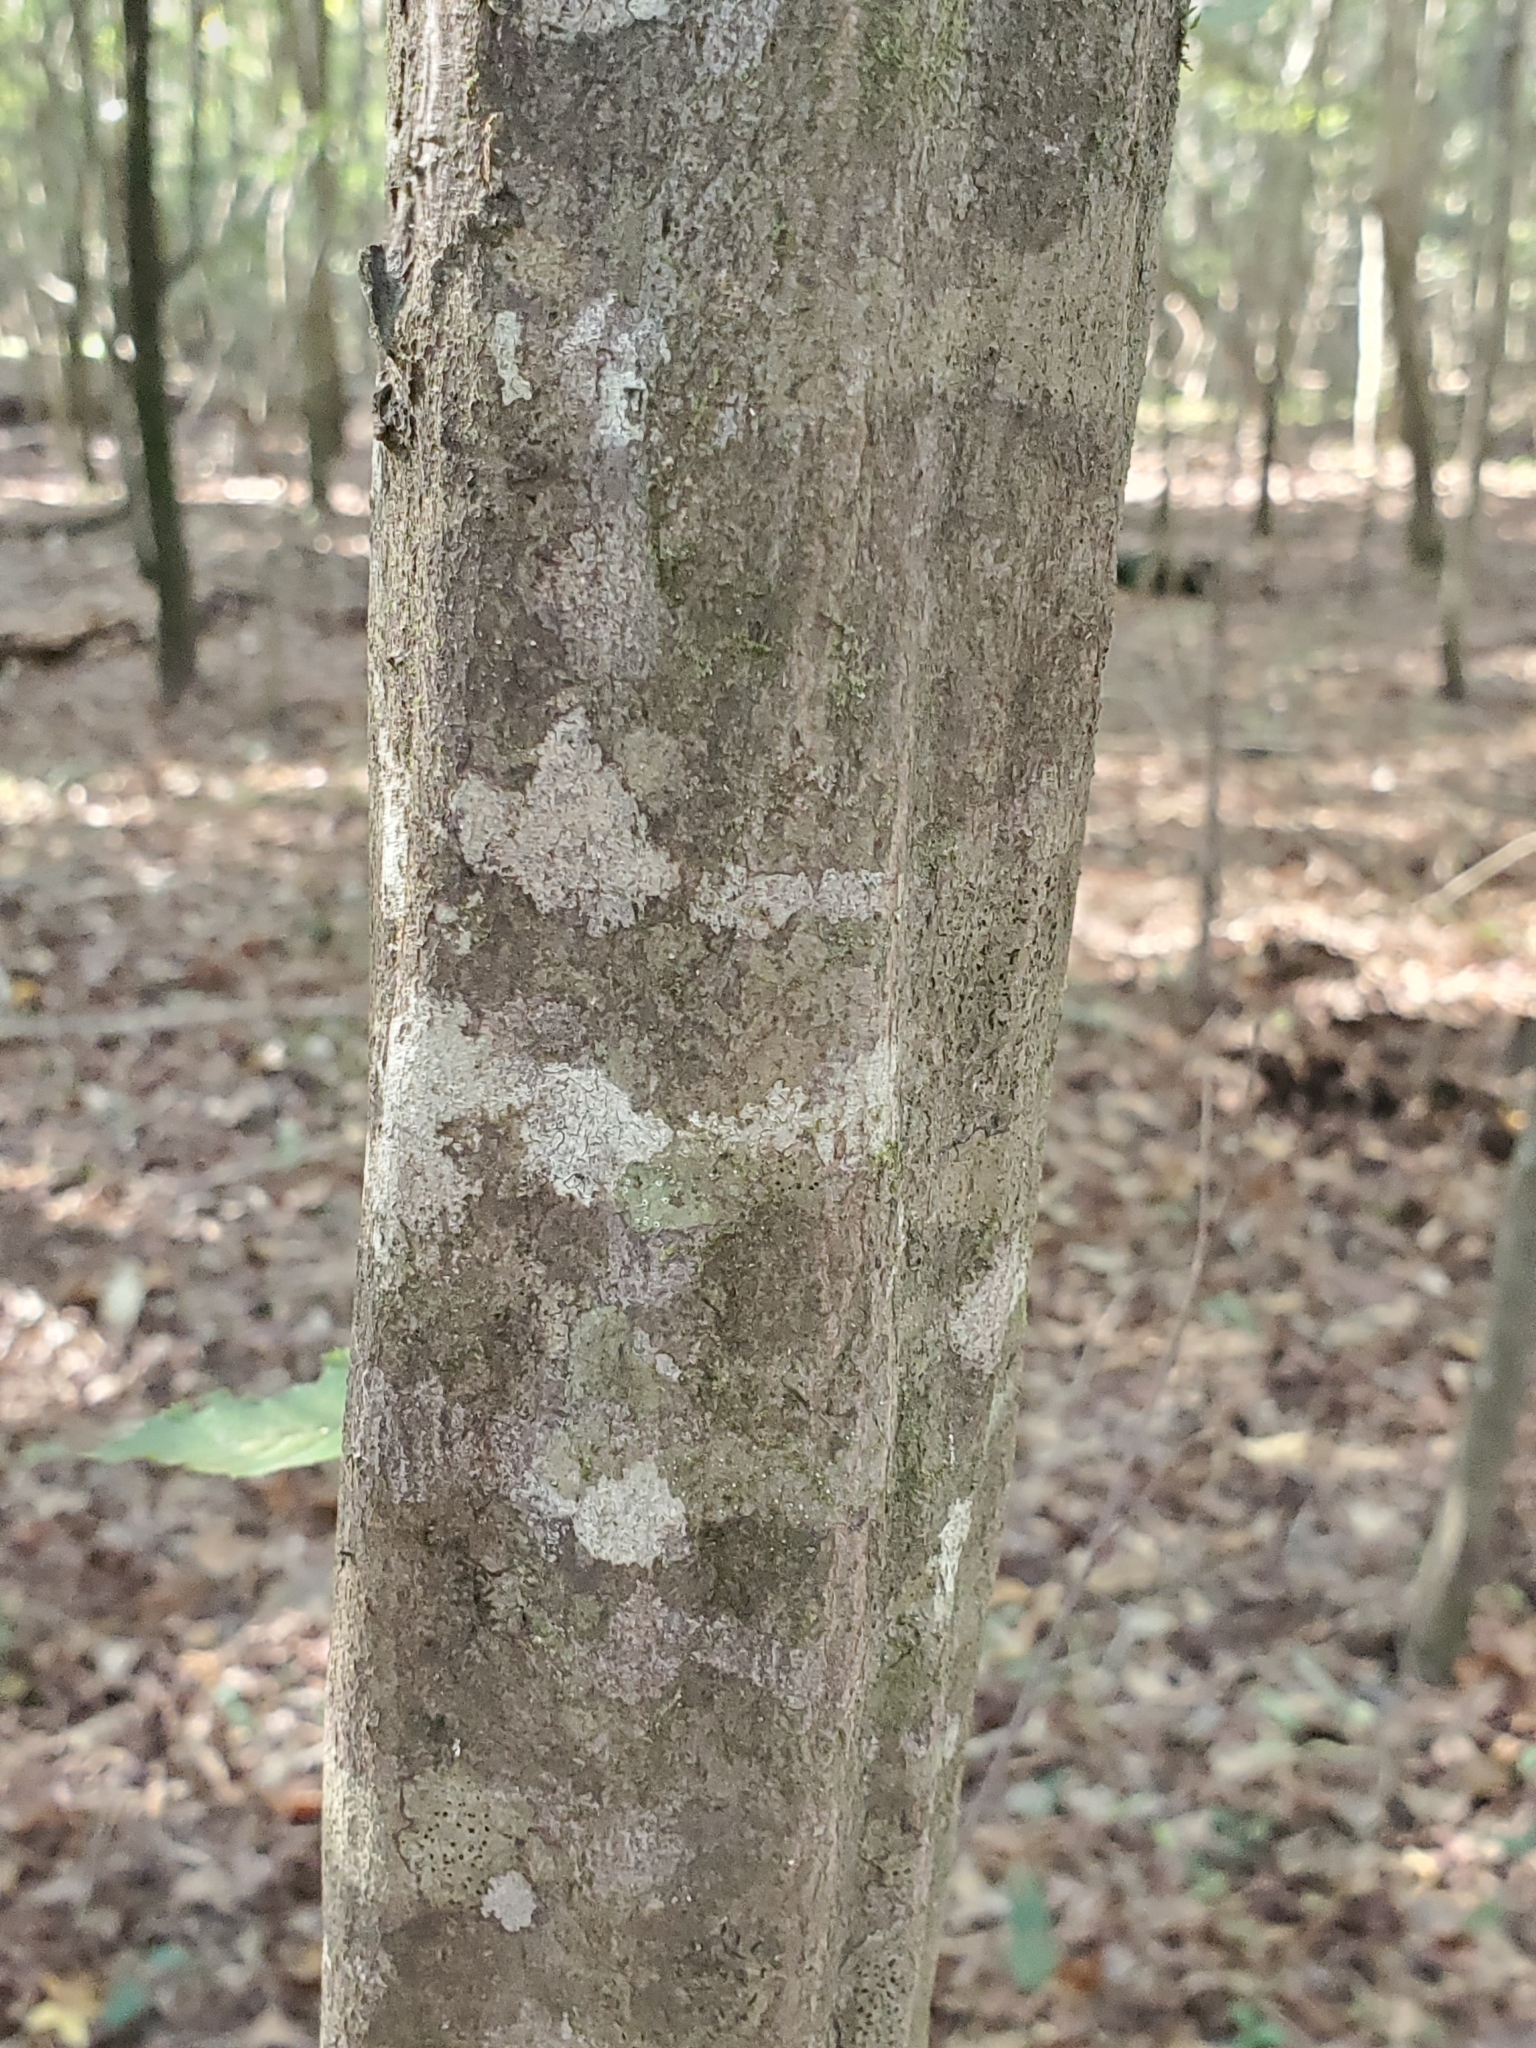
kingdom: Plantae
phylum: Tracheophyta
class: Magnoliopsida
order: Fagales
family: Betulaceae
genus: Carpinus
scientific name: Carpinus caroliniana
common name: American hornbeam
